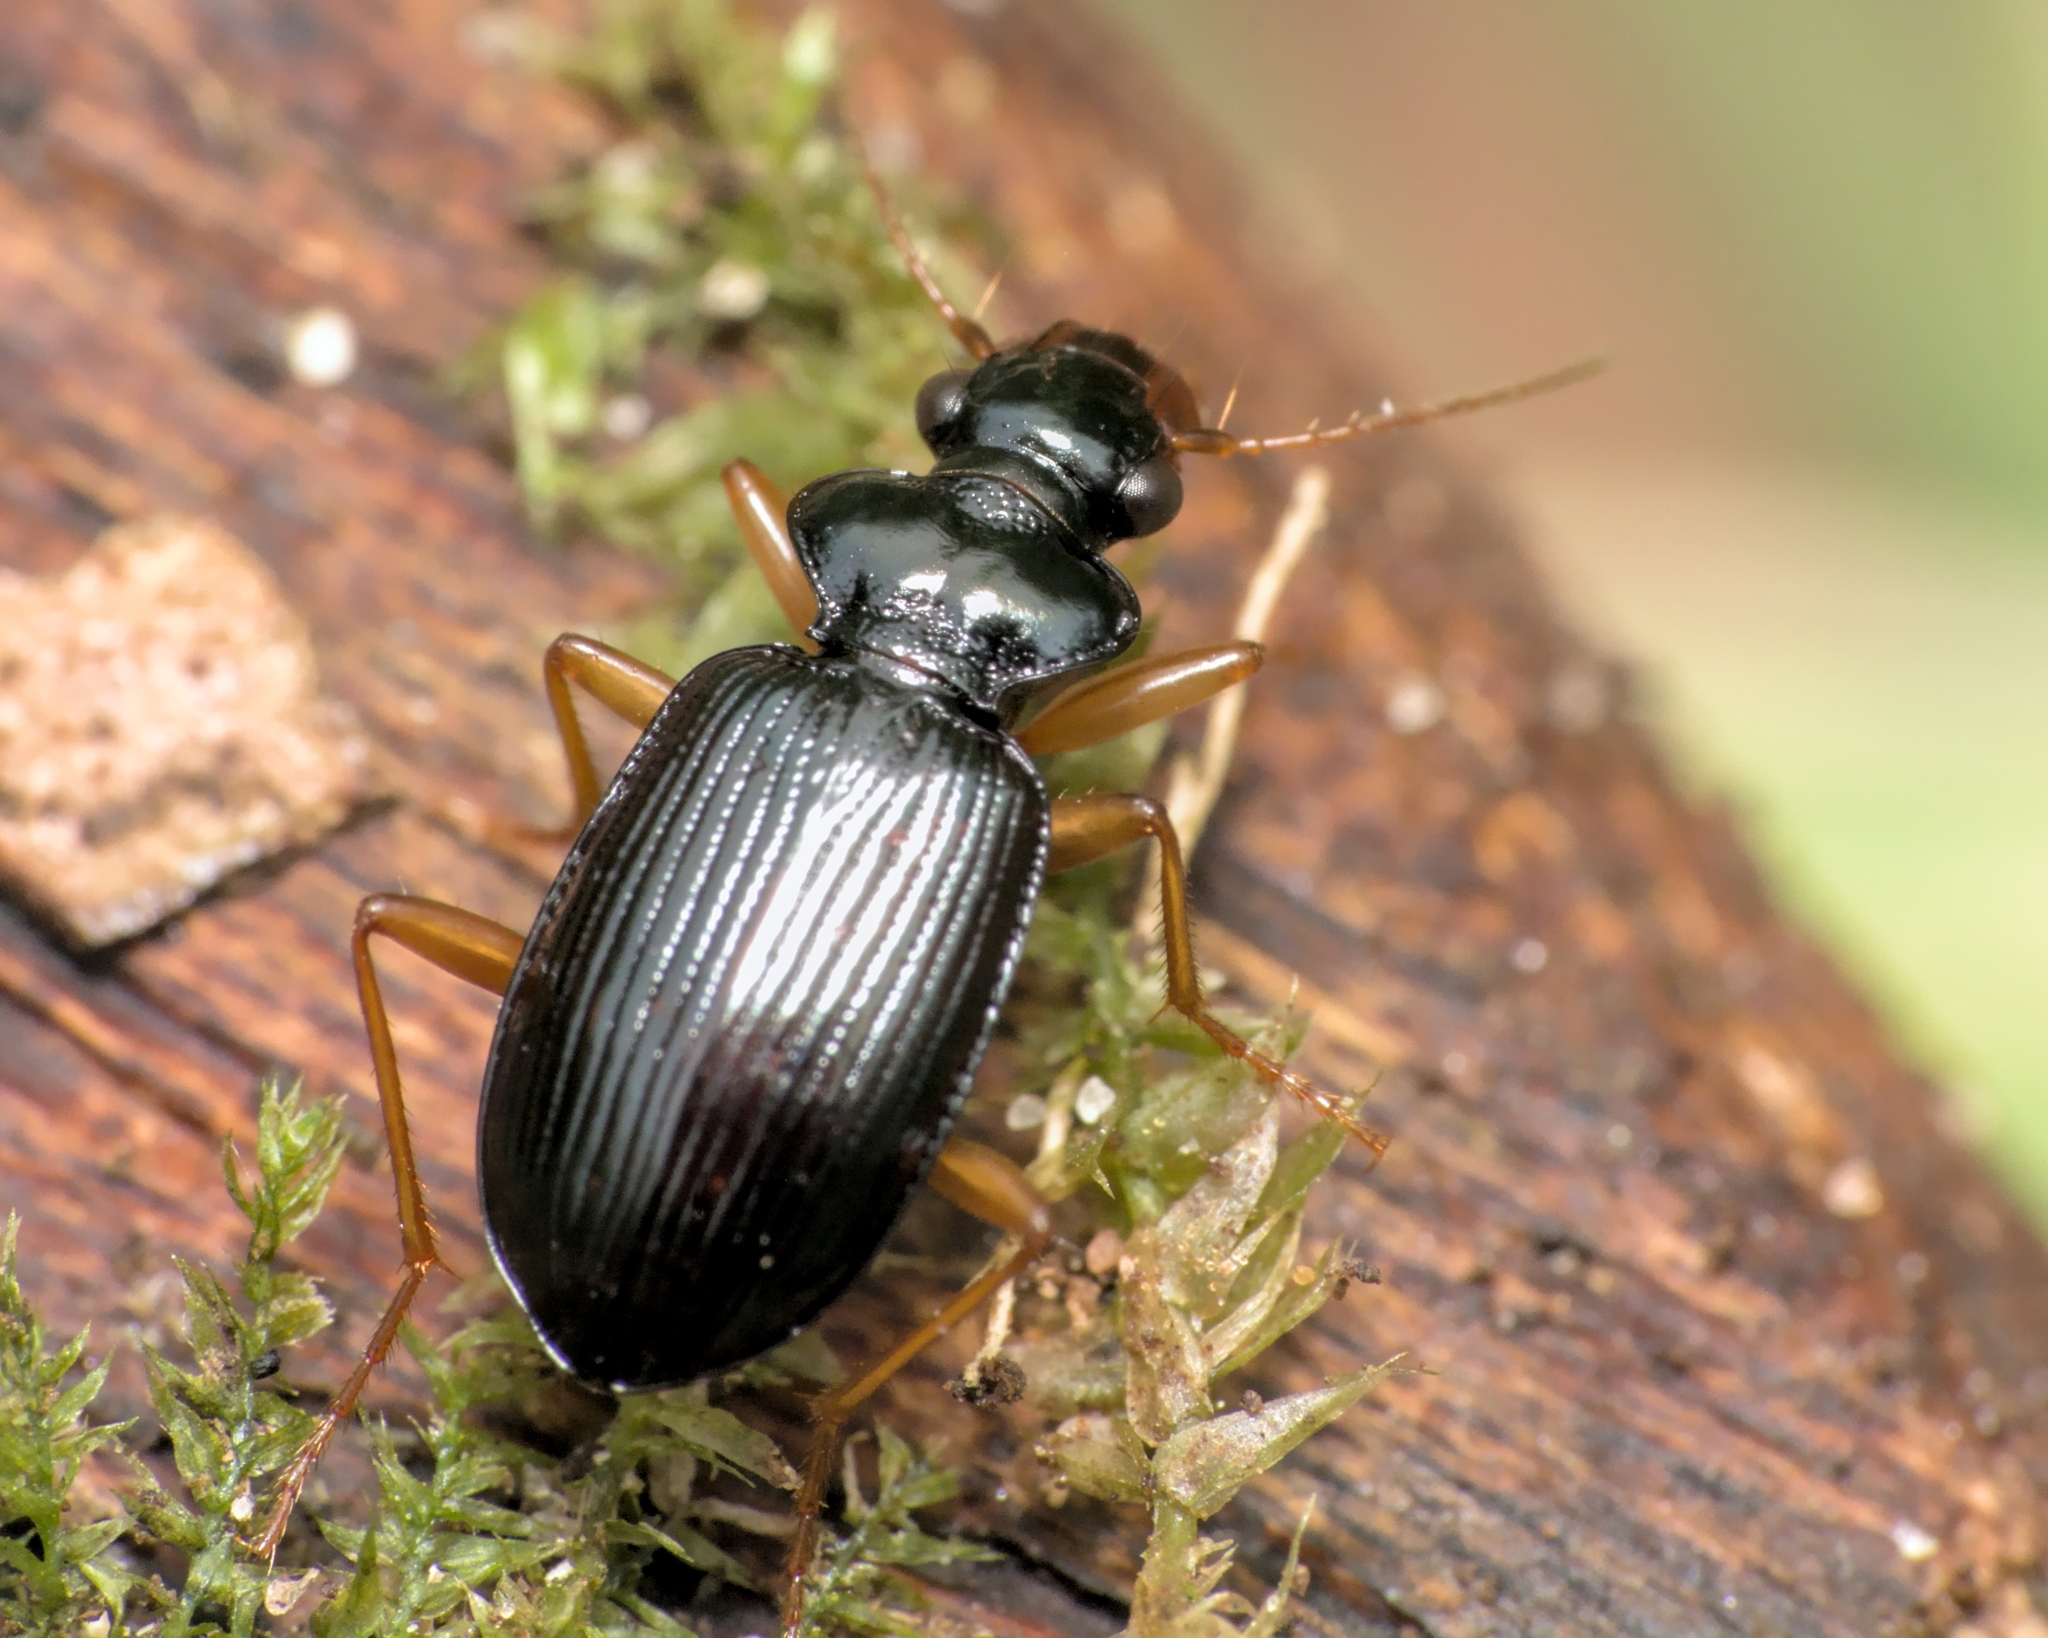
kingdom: Animalia
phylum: Arthropoda
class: Insecta
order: Coleoptera
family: Carabidae
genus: Leistus
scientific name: Leistus fulvibarbis
